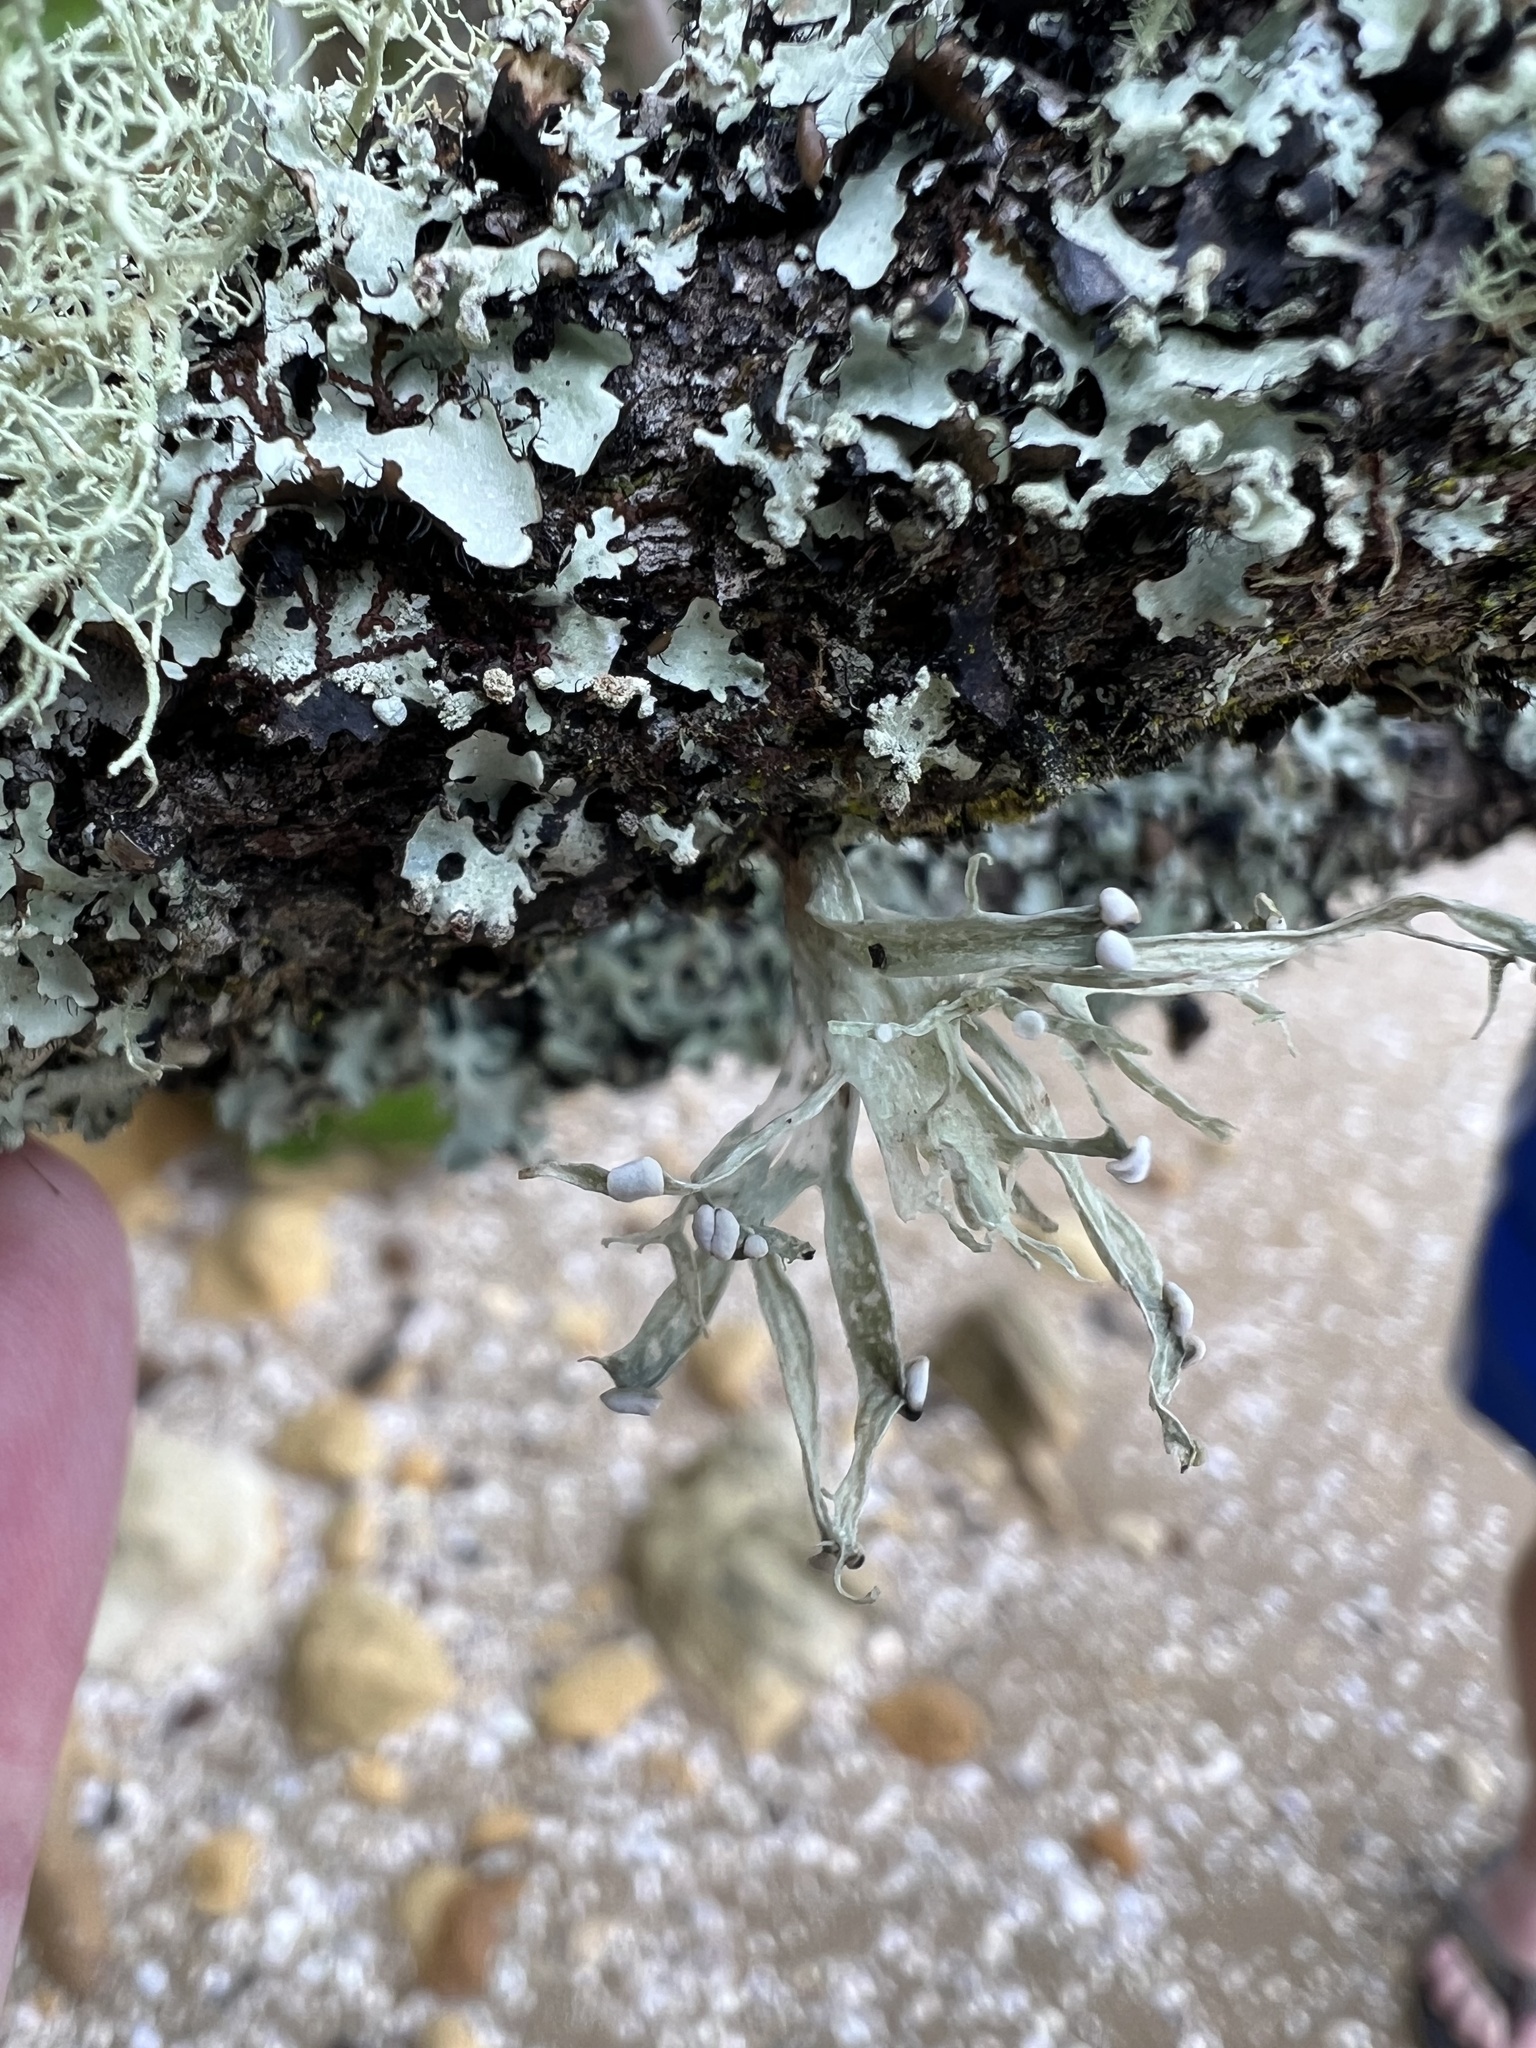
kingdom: Fungi
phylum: Ascomycota
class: Lecanoromycetes
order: Lecanorales
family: Ramalinaceae
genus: Ramalina
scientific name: Ramalina celastri
